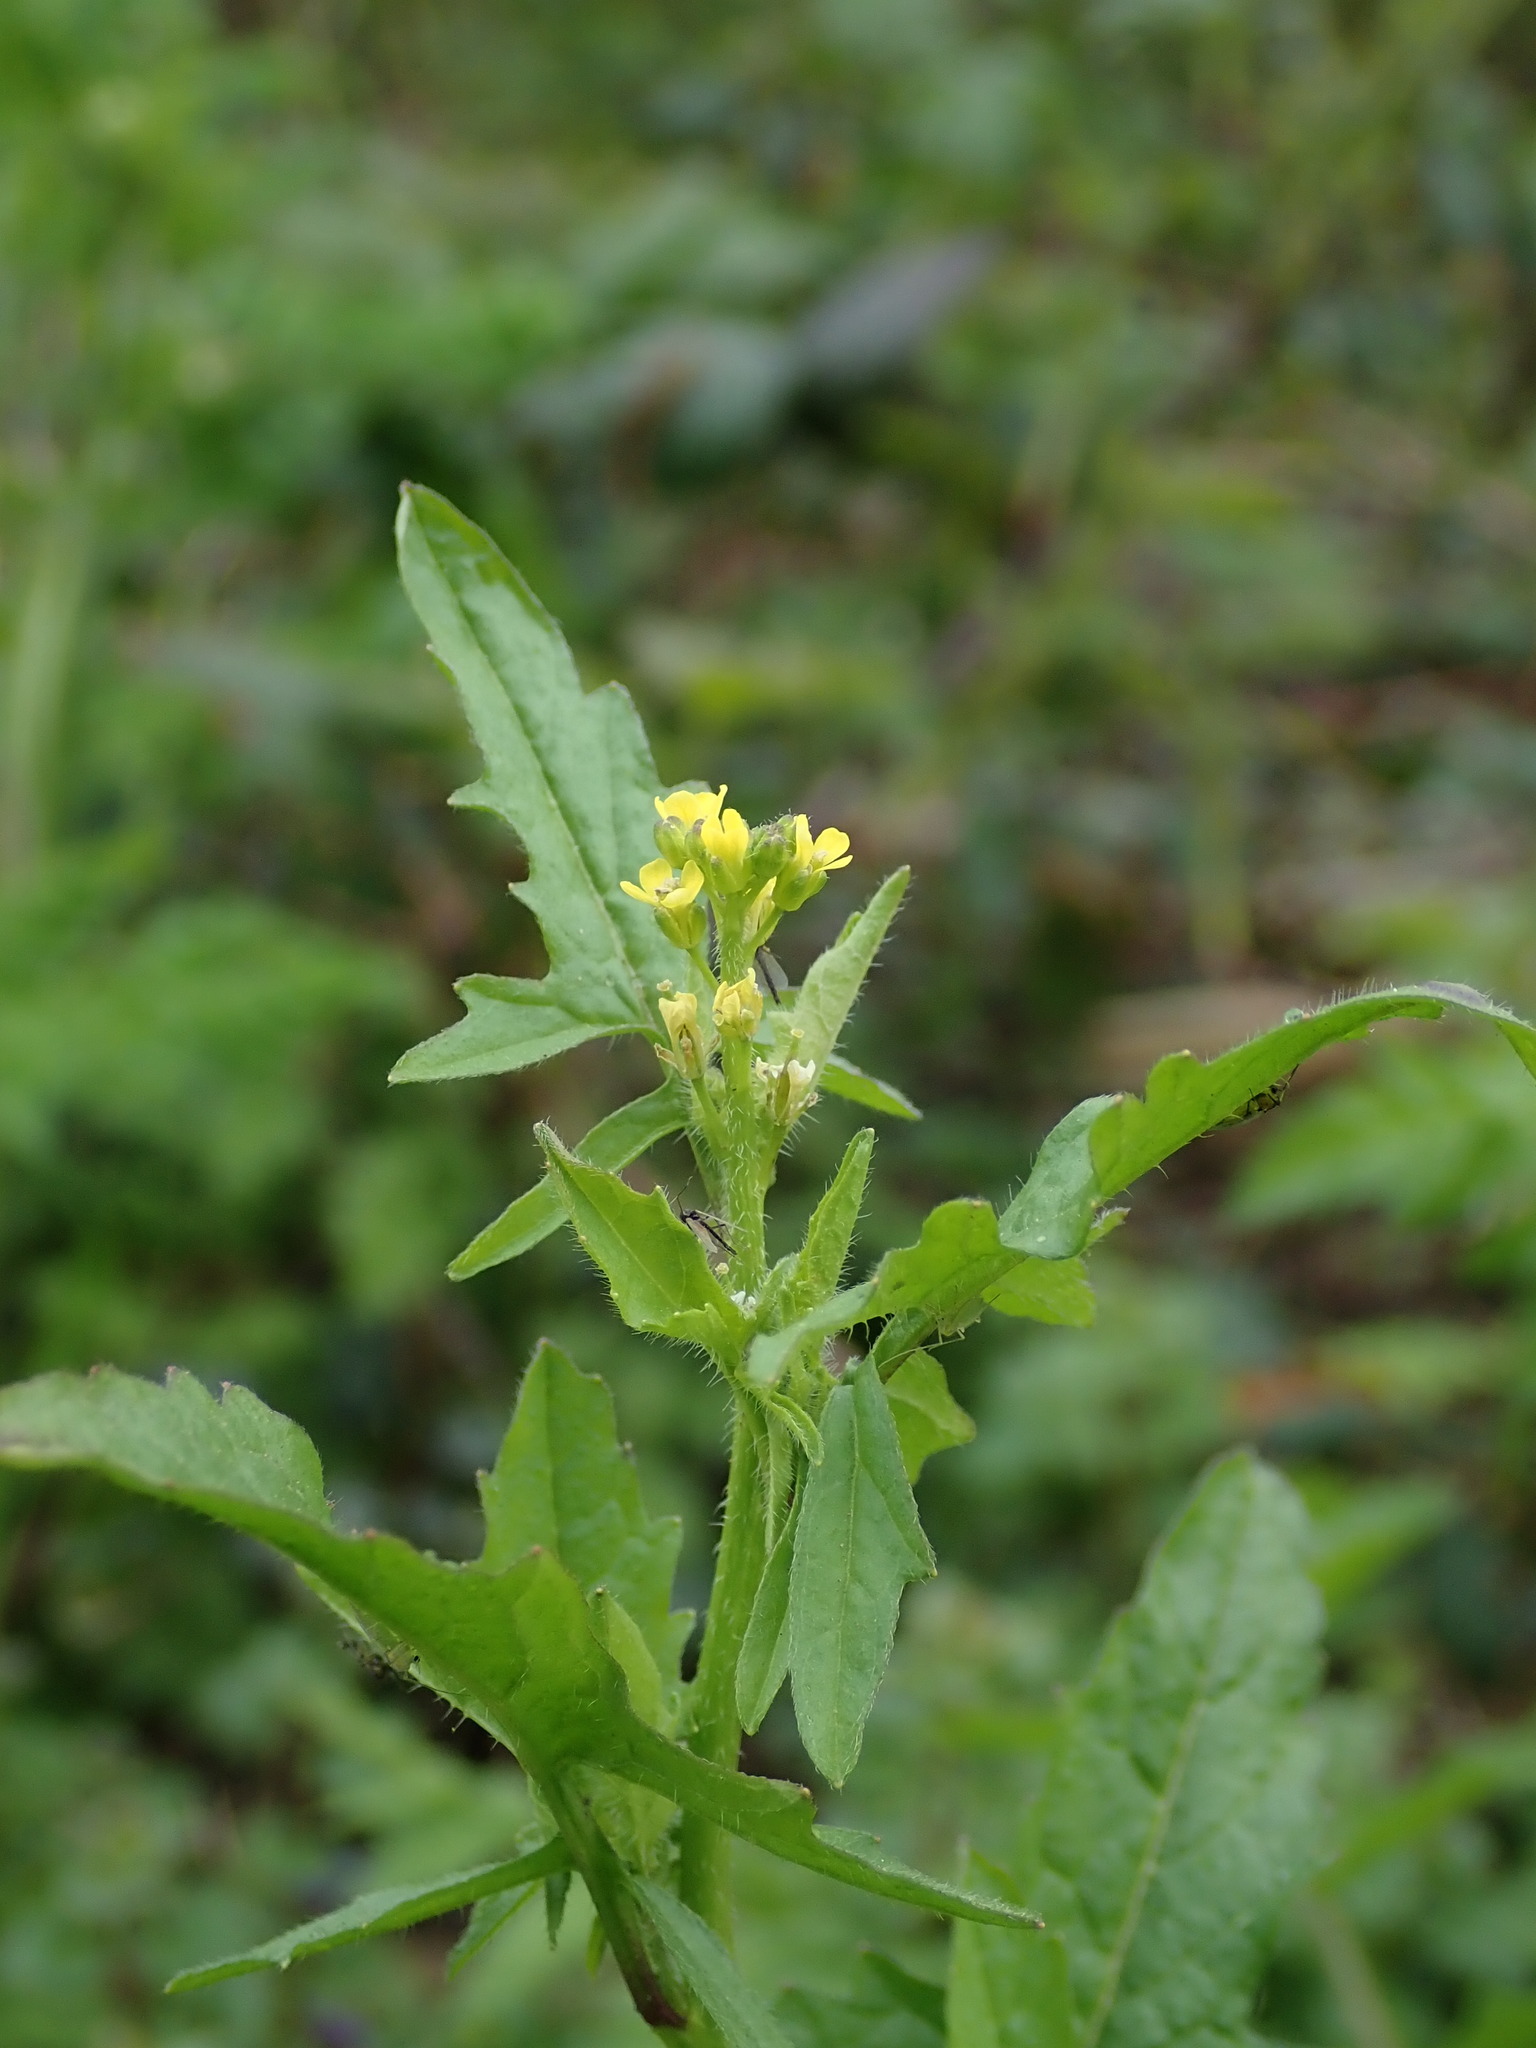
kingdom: Plantae
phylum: Tracheophyta
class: Magnoliopsida
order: Brassicales
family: Brassicaceae
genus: Sisymbrium
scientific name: Sisymbrium officinale
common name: Hedge mustard
